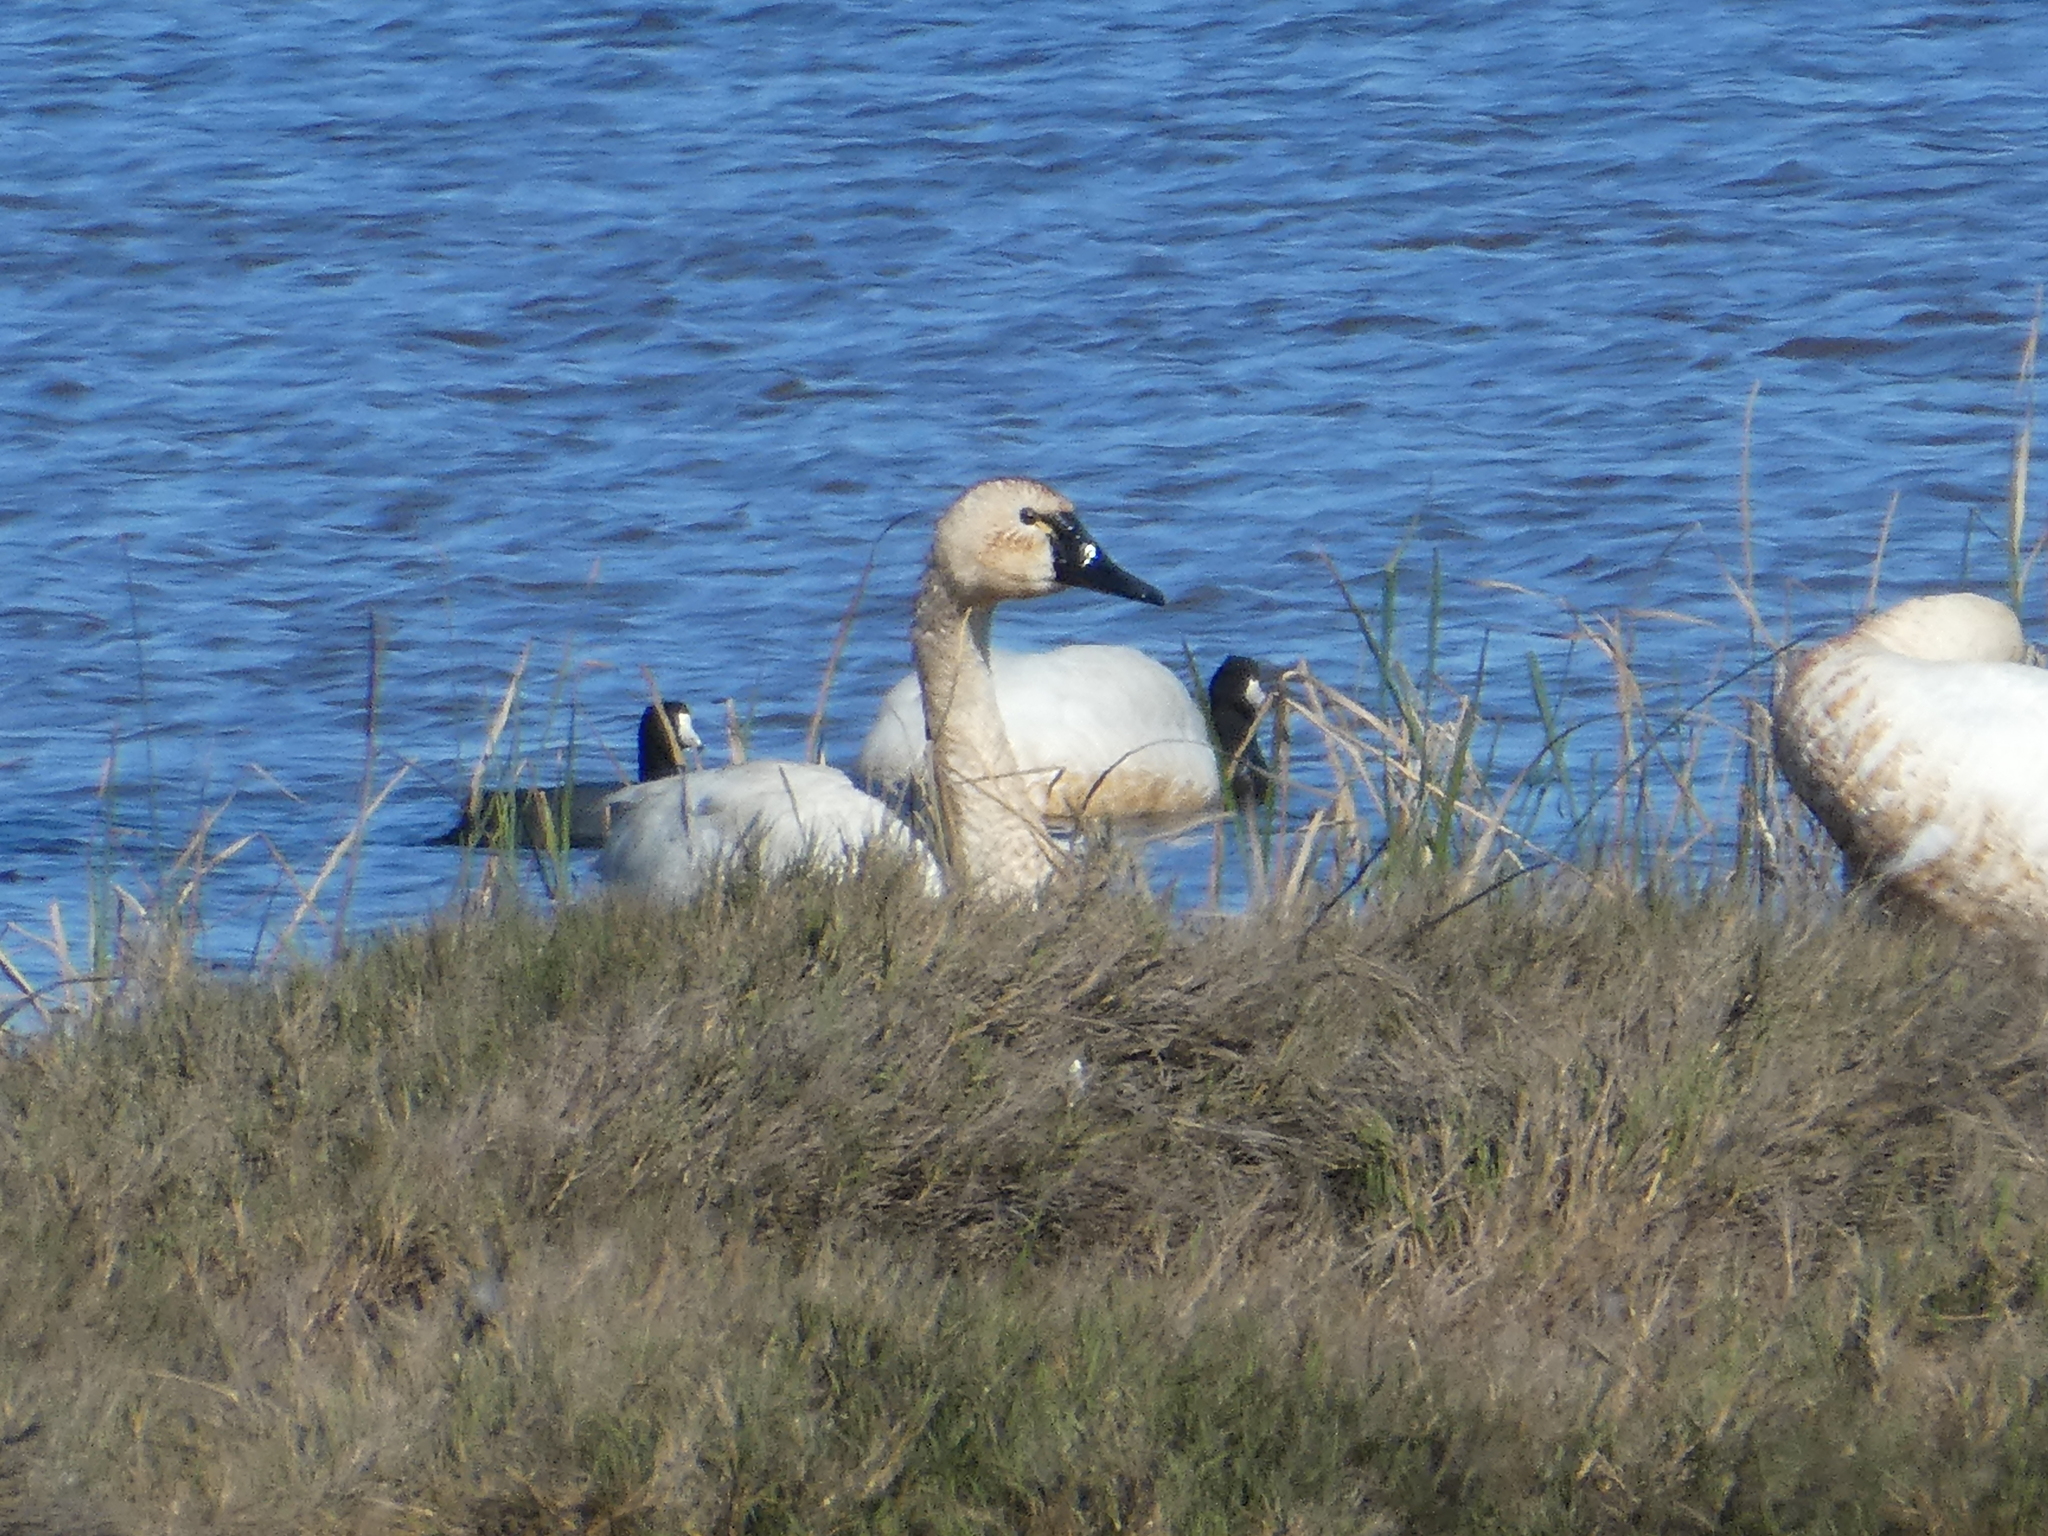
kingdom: Animalia
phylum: Chordata
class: Aves
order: Anseriformes
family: Anatidae
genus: Cygnus
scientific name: Cygnus columbianus
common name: Tundra swan
